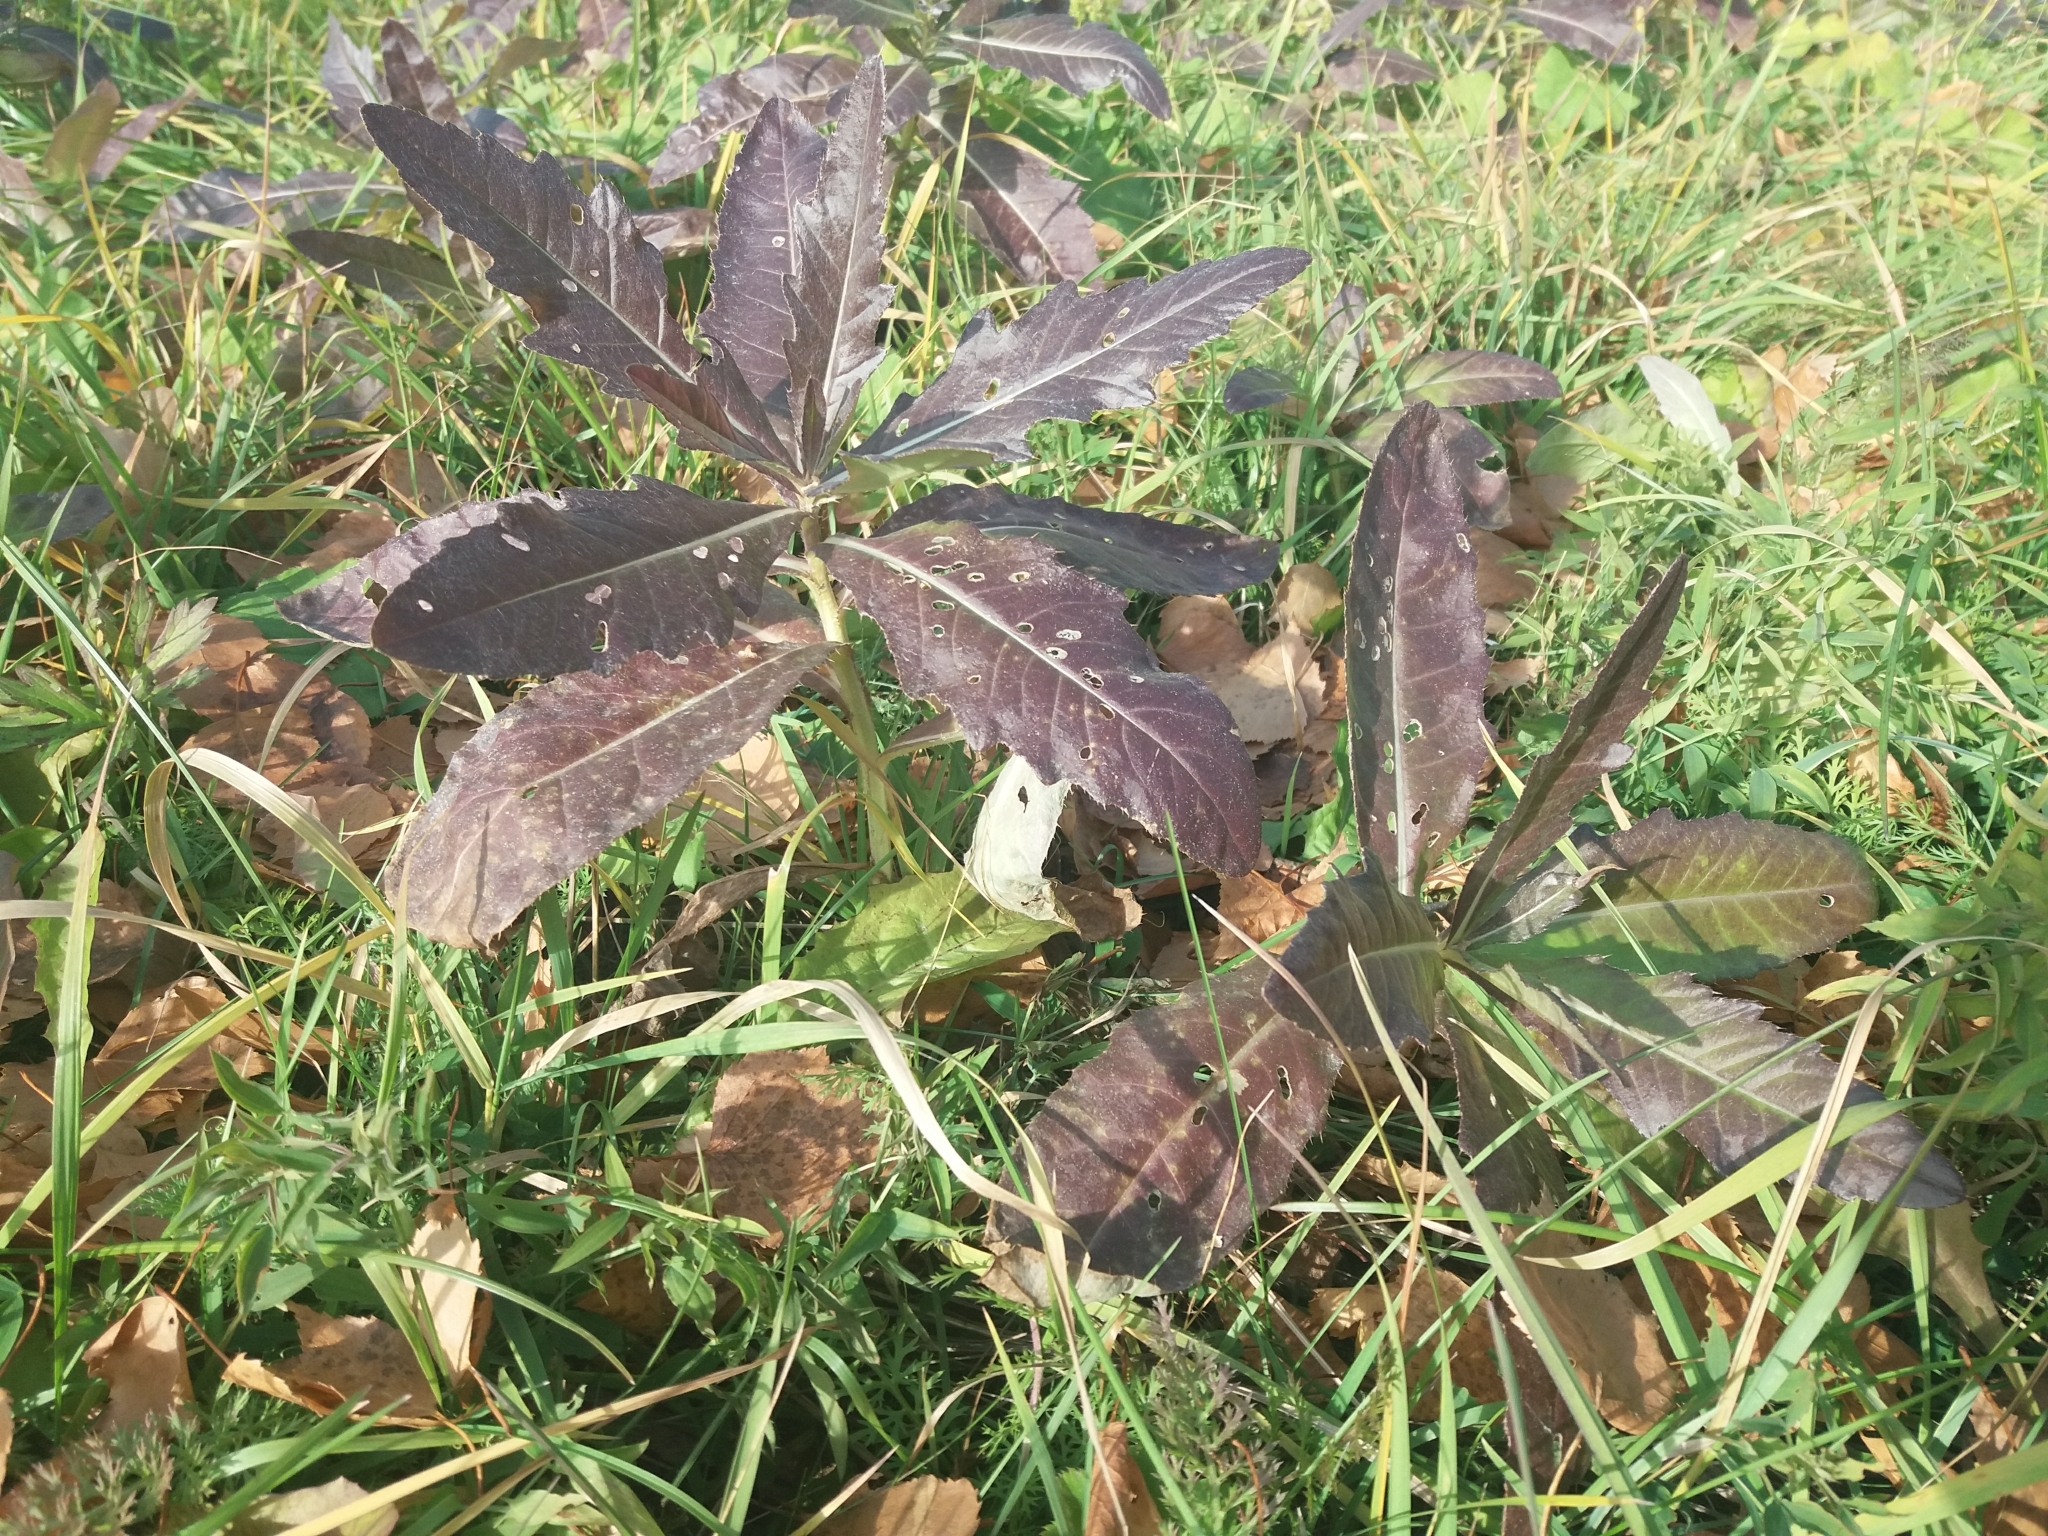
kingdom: Plantae
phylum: Tracheophyta
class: Magnoliopsida
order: Asterales
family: Asteraceae
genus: Cirsium
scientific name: Cirsium arvense
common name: Creeping thistle
